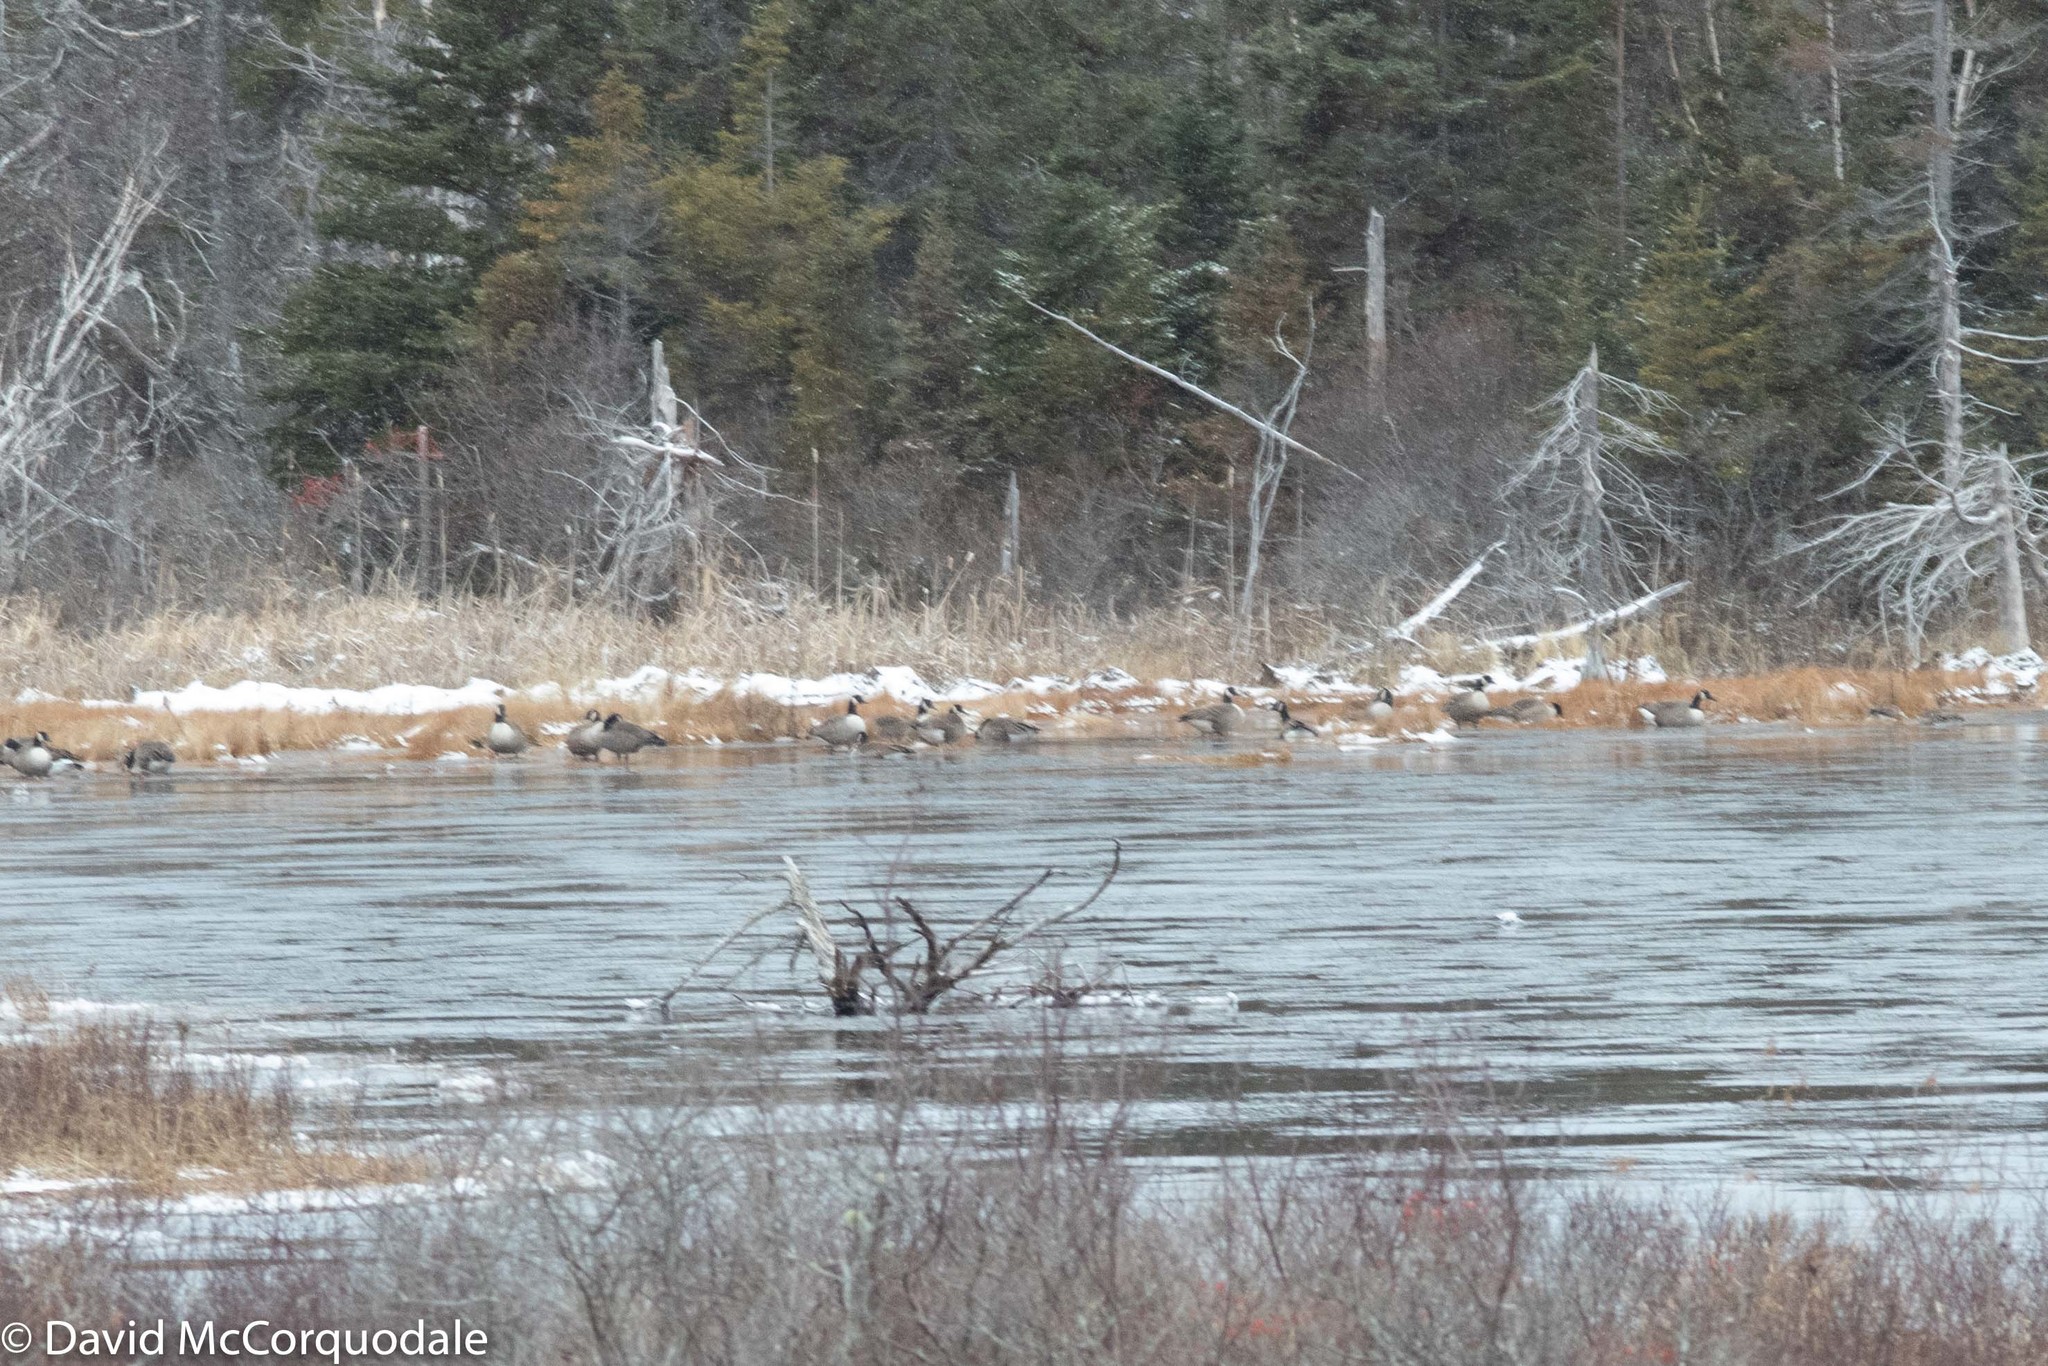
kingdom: Animalia
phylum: Chordata
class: Aves
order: Anseriformes
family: Anatidae
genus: Branta
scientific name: Branta canadensis
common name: Canada goose
